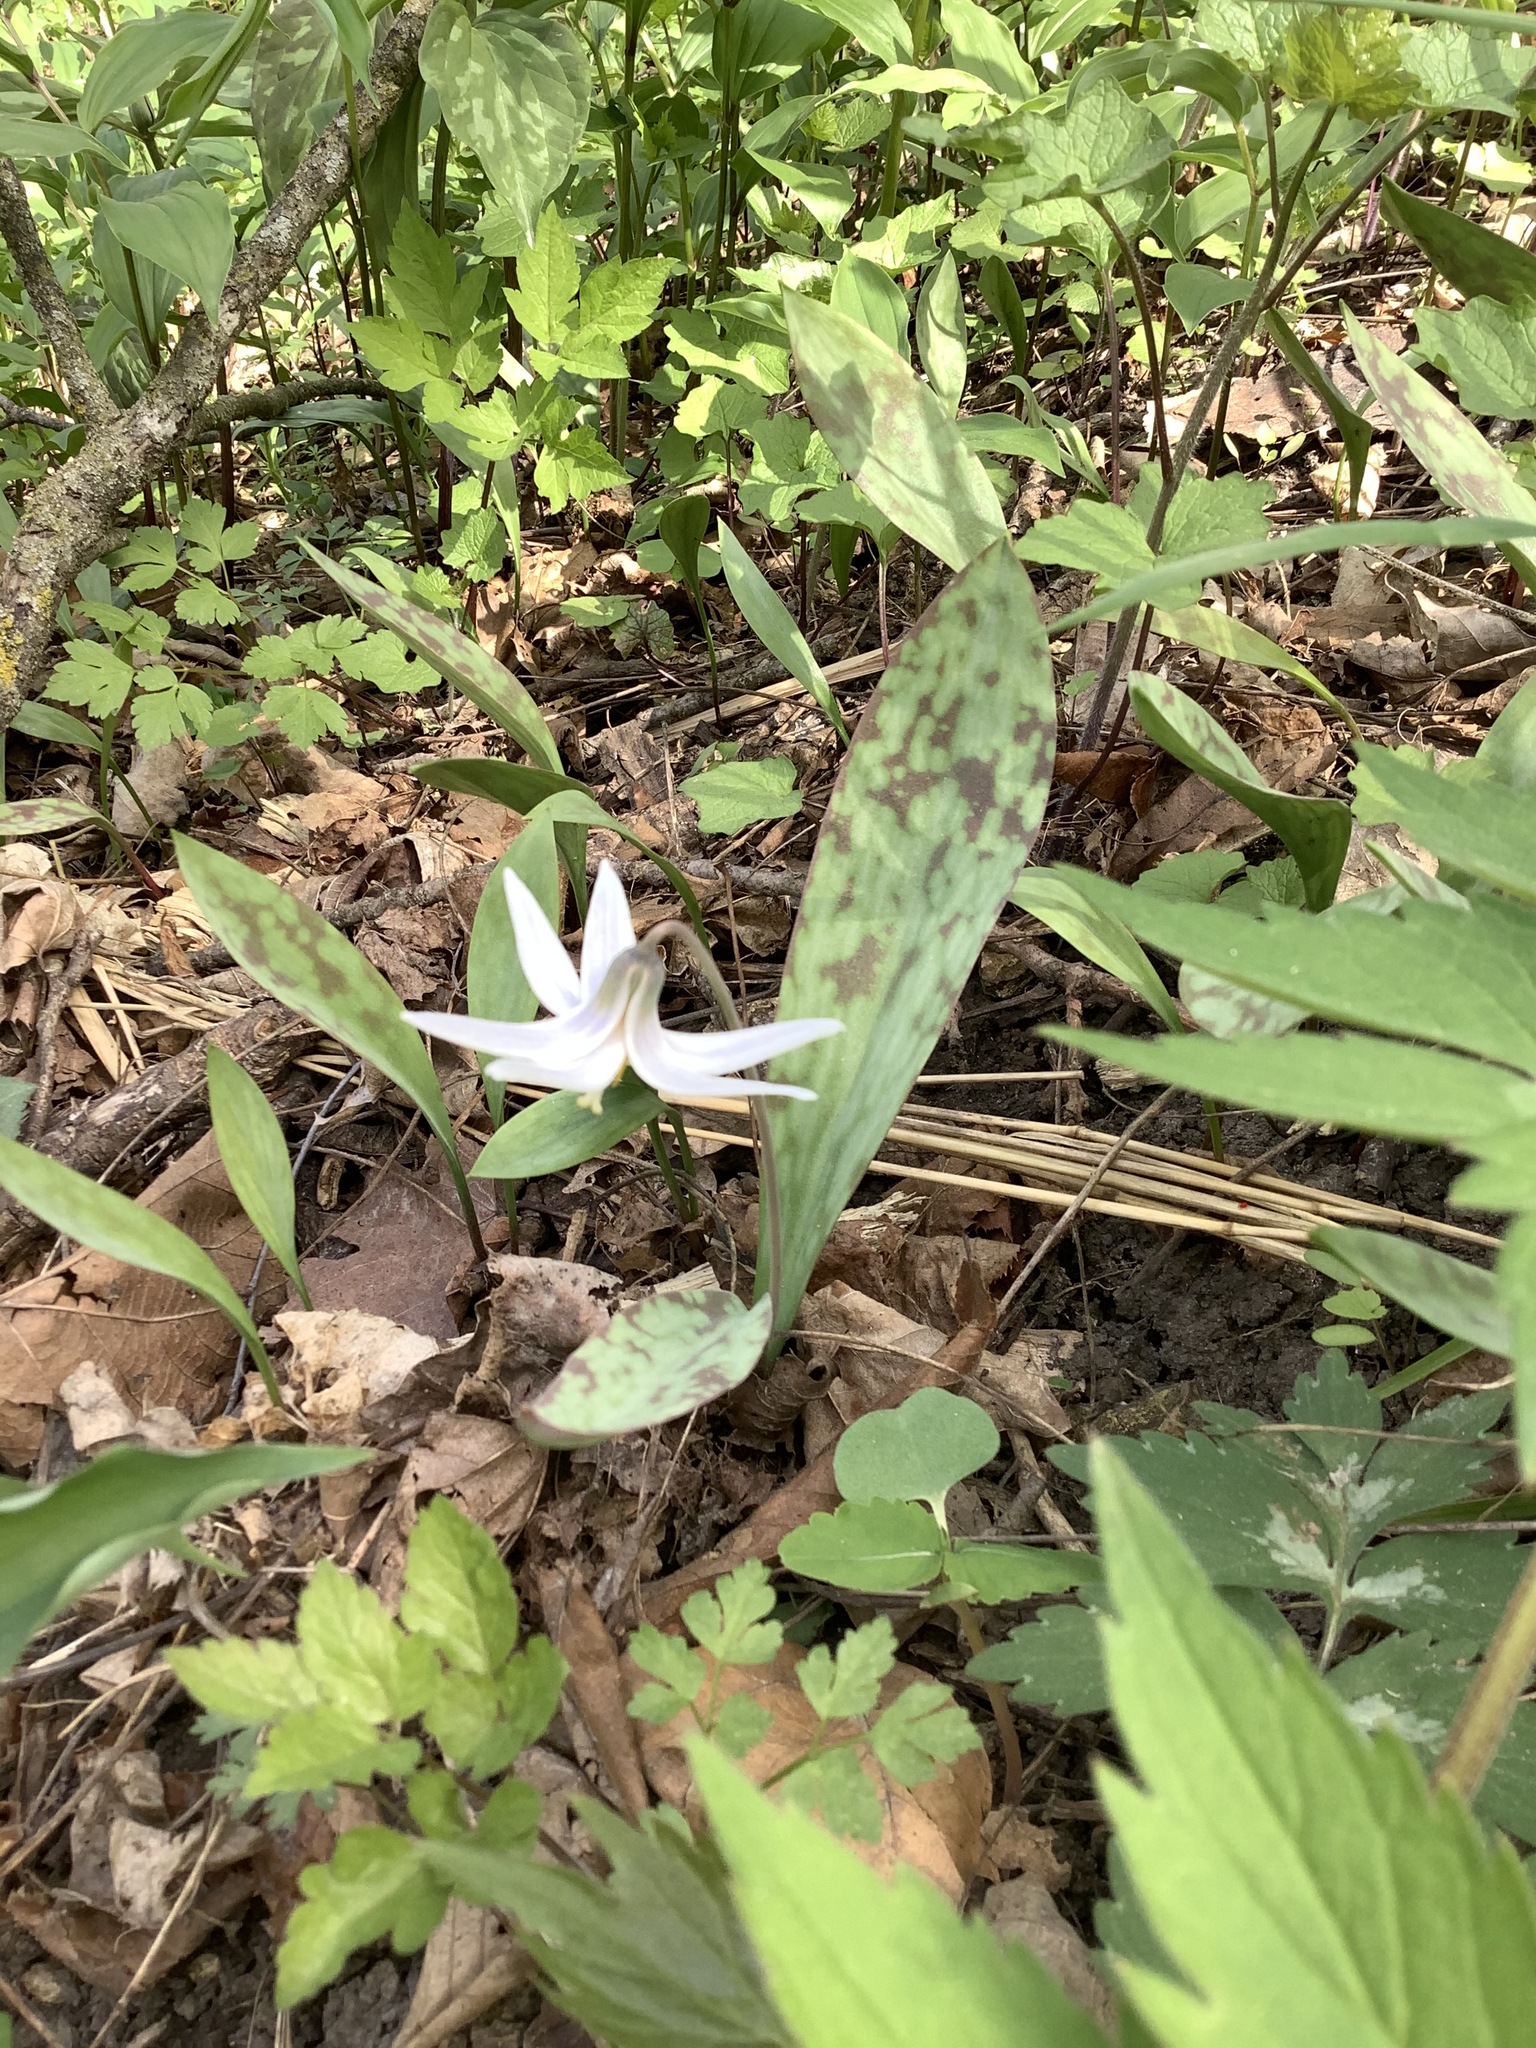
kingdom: Plantae
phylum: Tracheophyta
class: Liliopsida
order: Liliales
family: Liliaceae
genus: Erythronium
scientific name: Erythronium albidum
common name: White trout-lily
